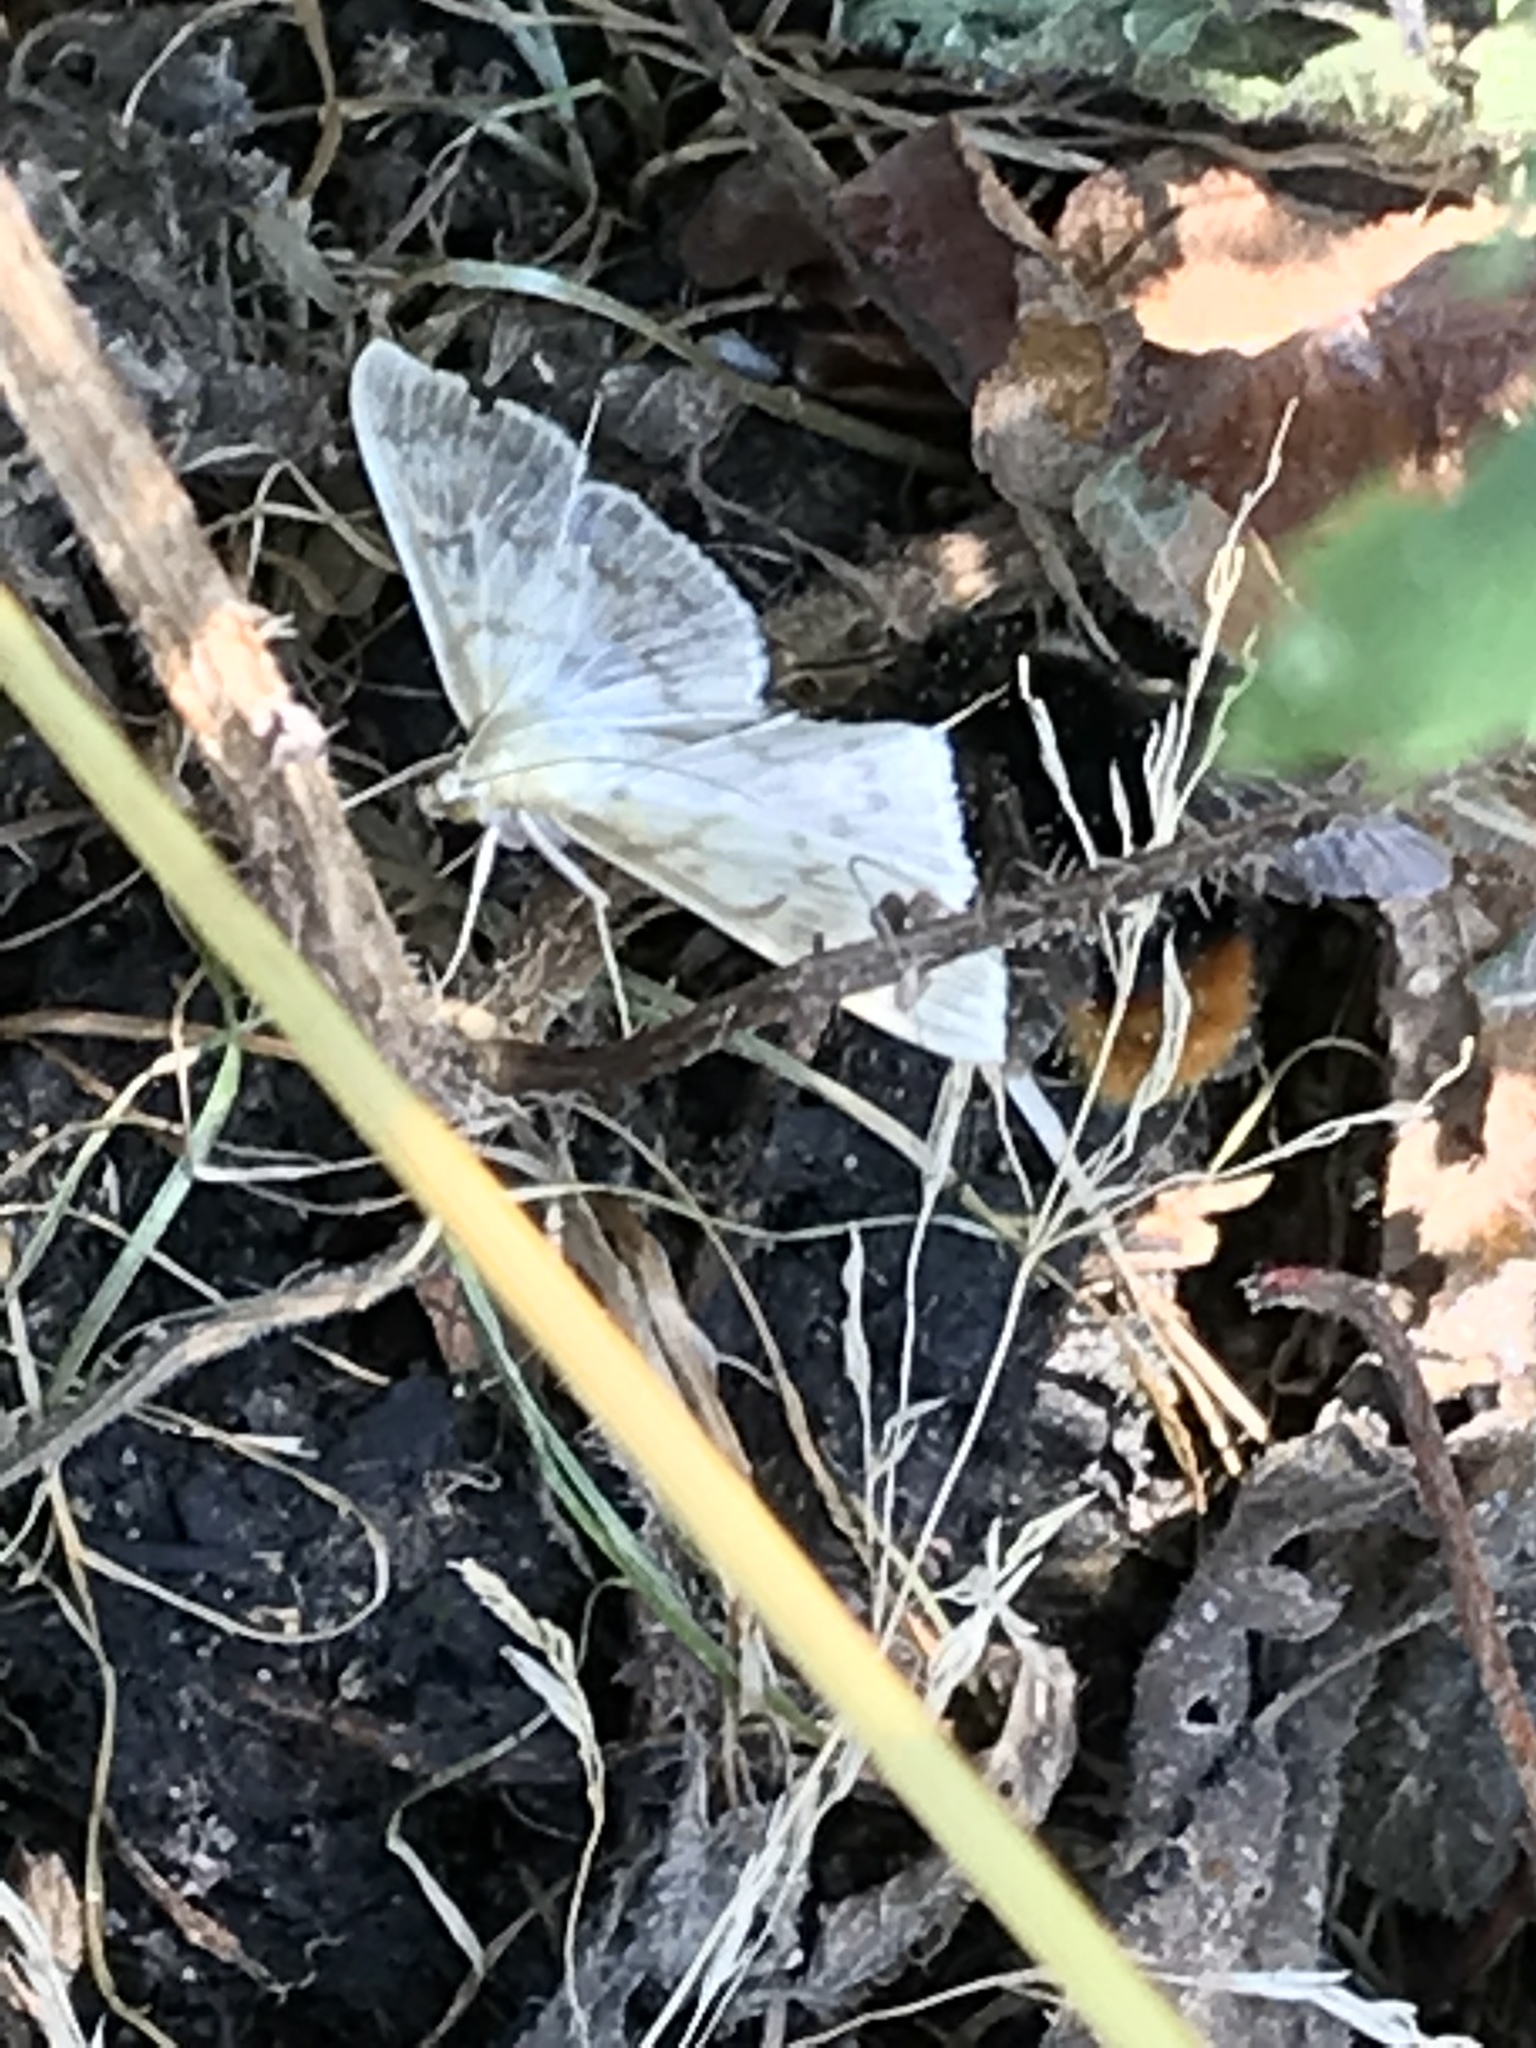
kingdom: Animalia
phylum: Arthropoda
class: Insecta
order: Lepidoptera
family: Crambidae
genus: Patania
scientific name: Patania ruralis
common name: Mother of pearl
